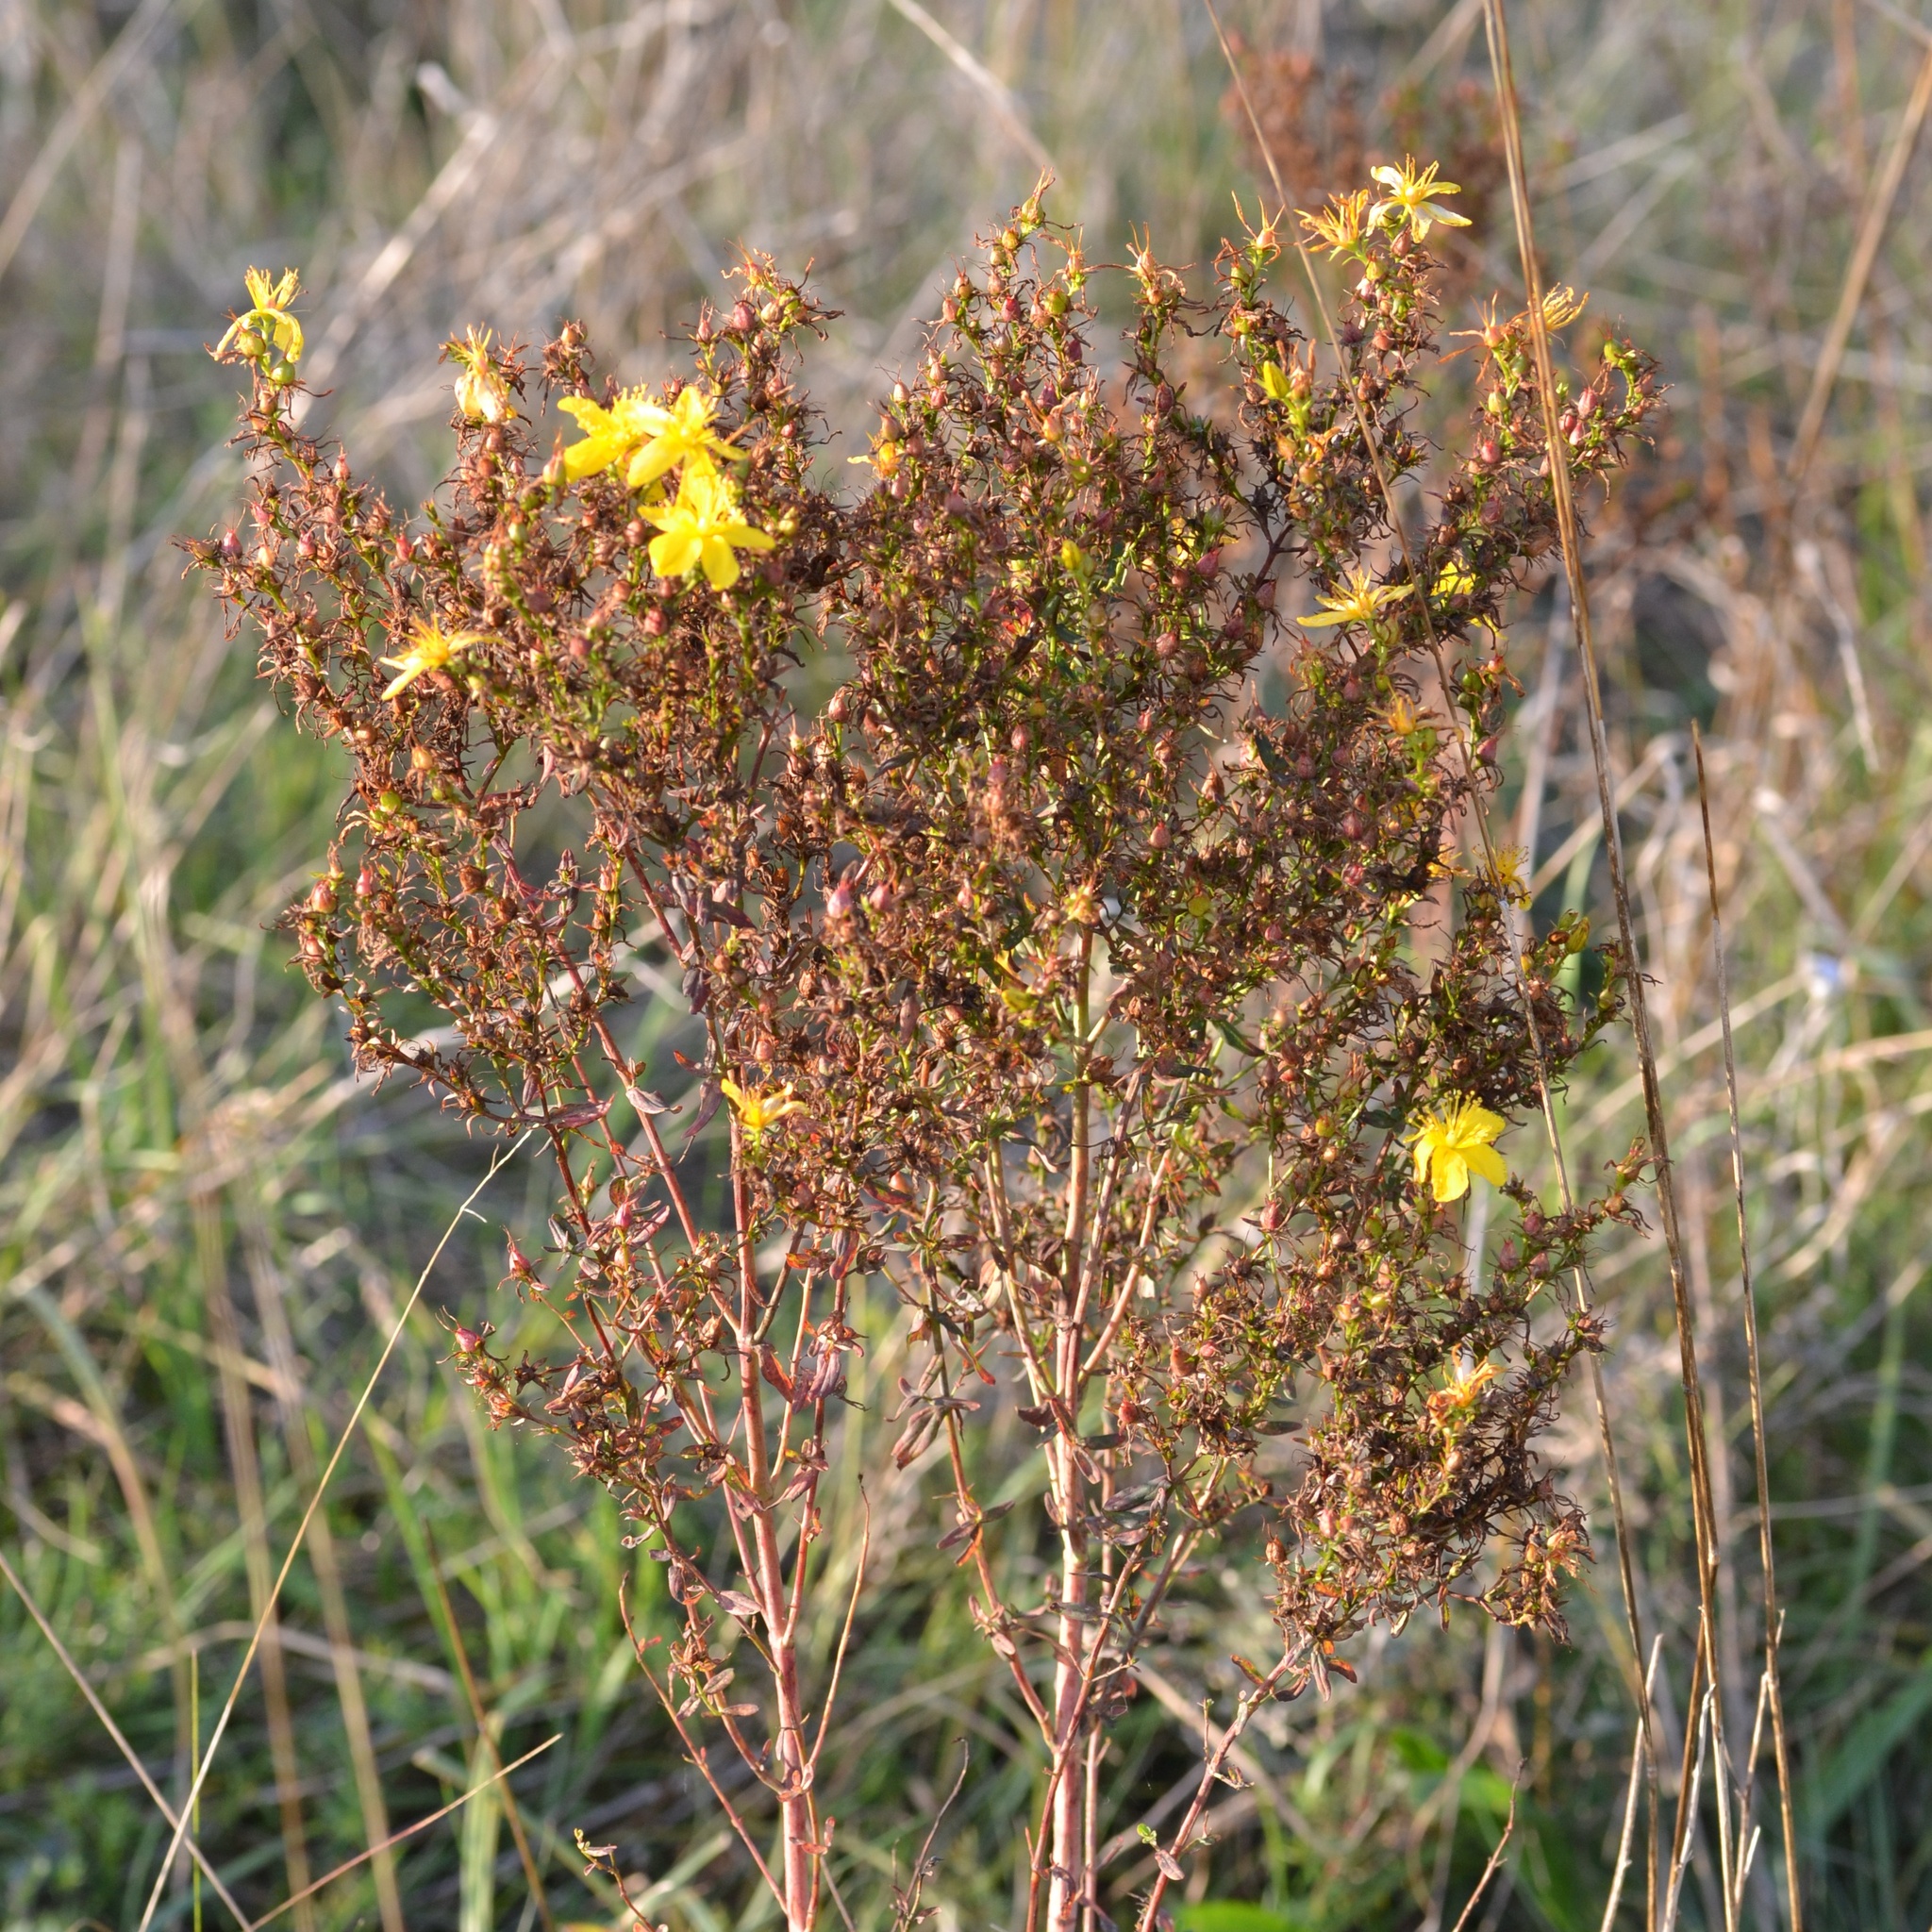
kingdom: Plantae
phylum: Tracheophyta
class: Magnoliopsida
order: Malpighiales
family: Hypericaceae
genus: Hypericum
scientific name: Hypericum perforatum
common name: Common st. johnswort
